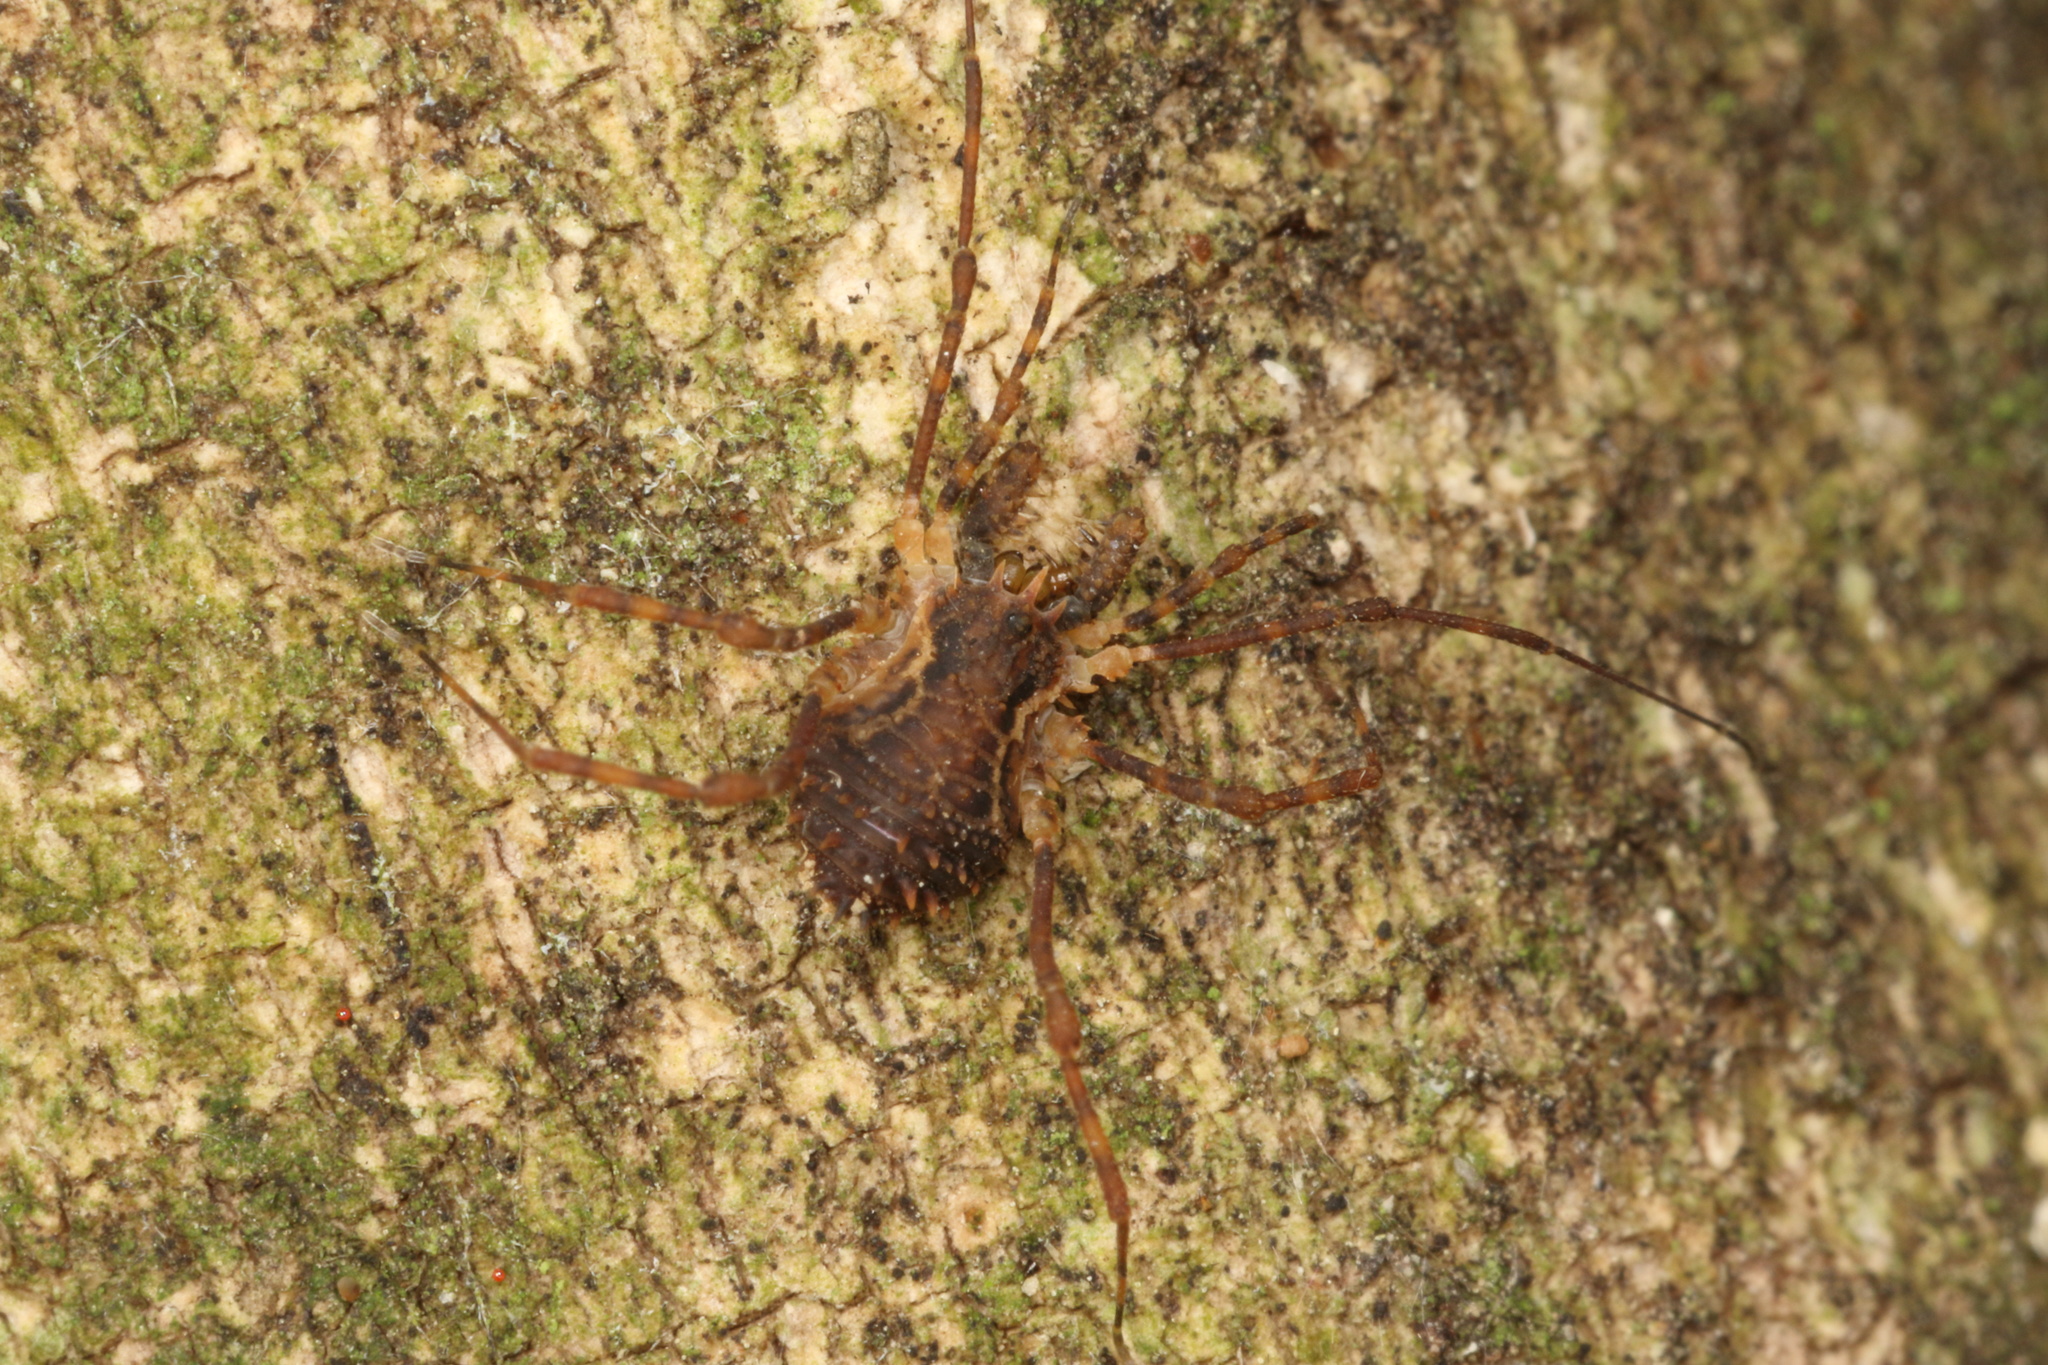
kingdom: Animalia
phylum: Arthropoda
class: Arachnida
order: Opiliones
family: Triaenonychidae
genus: Algidia
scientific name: Algidia chiltoni
